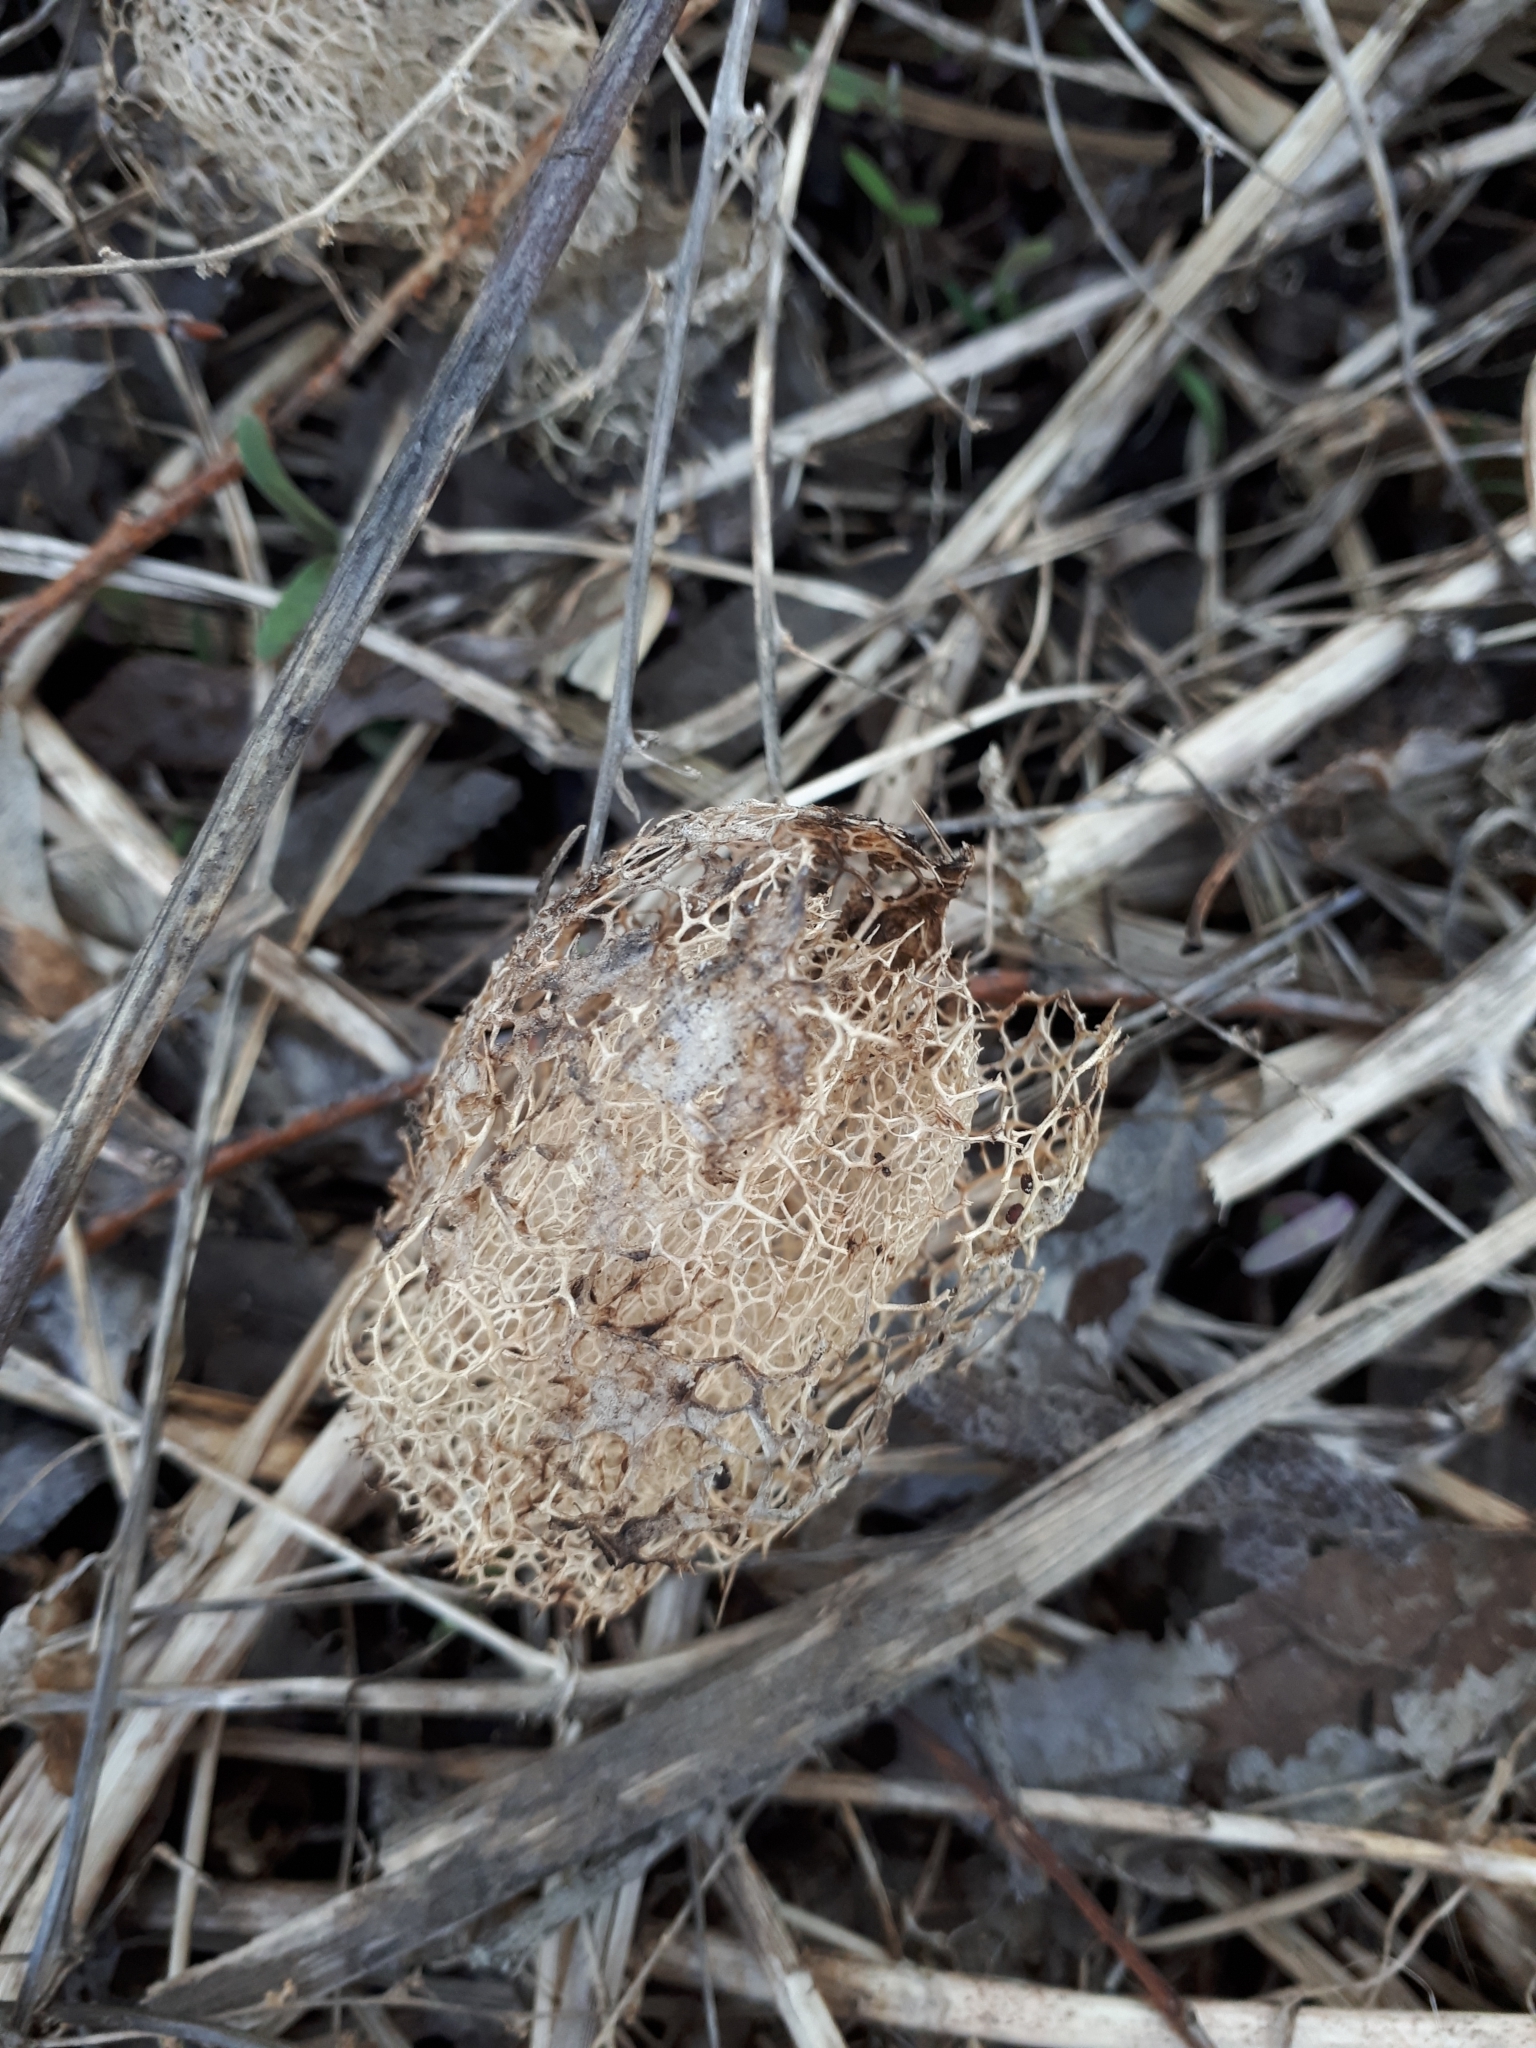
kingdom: Plantae
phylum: Tracheophyta
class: Magnoliopsida
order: Cucurbitales
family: Cucurbitaceae
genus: Echinocystis
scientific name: Echinocystis lobata
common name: Wild cucumber
